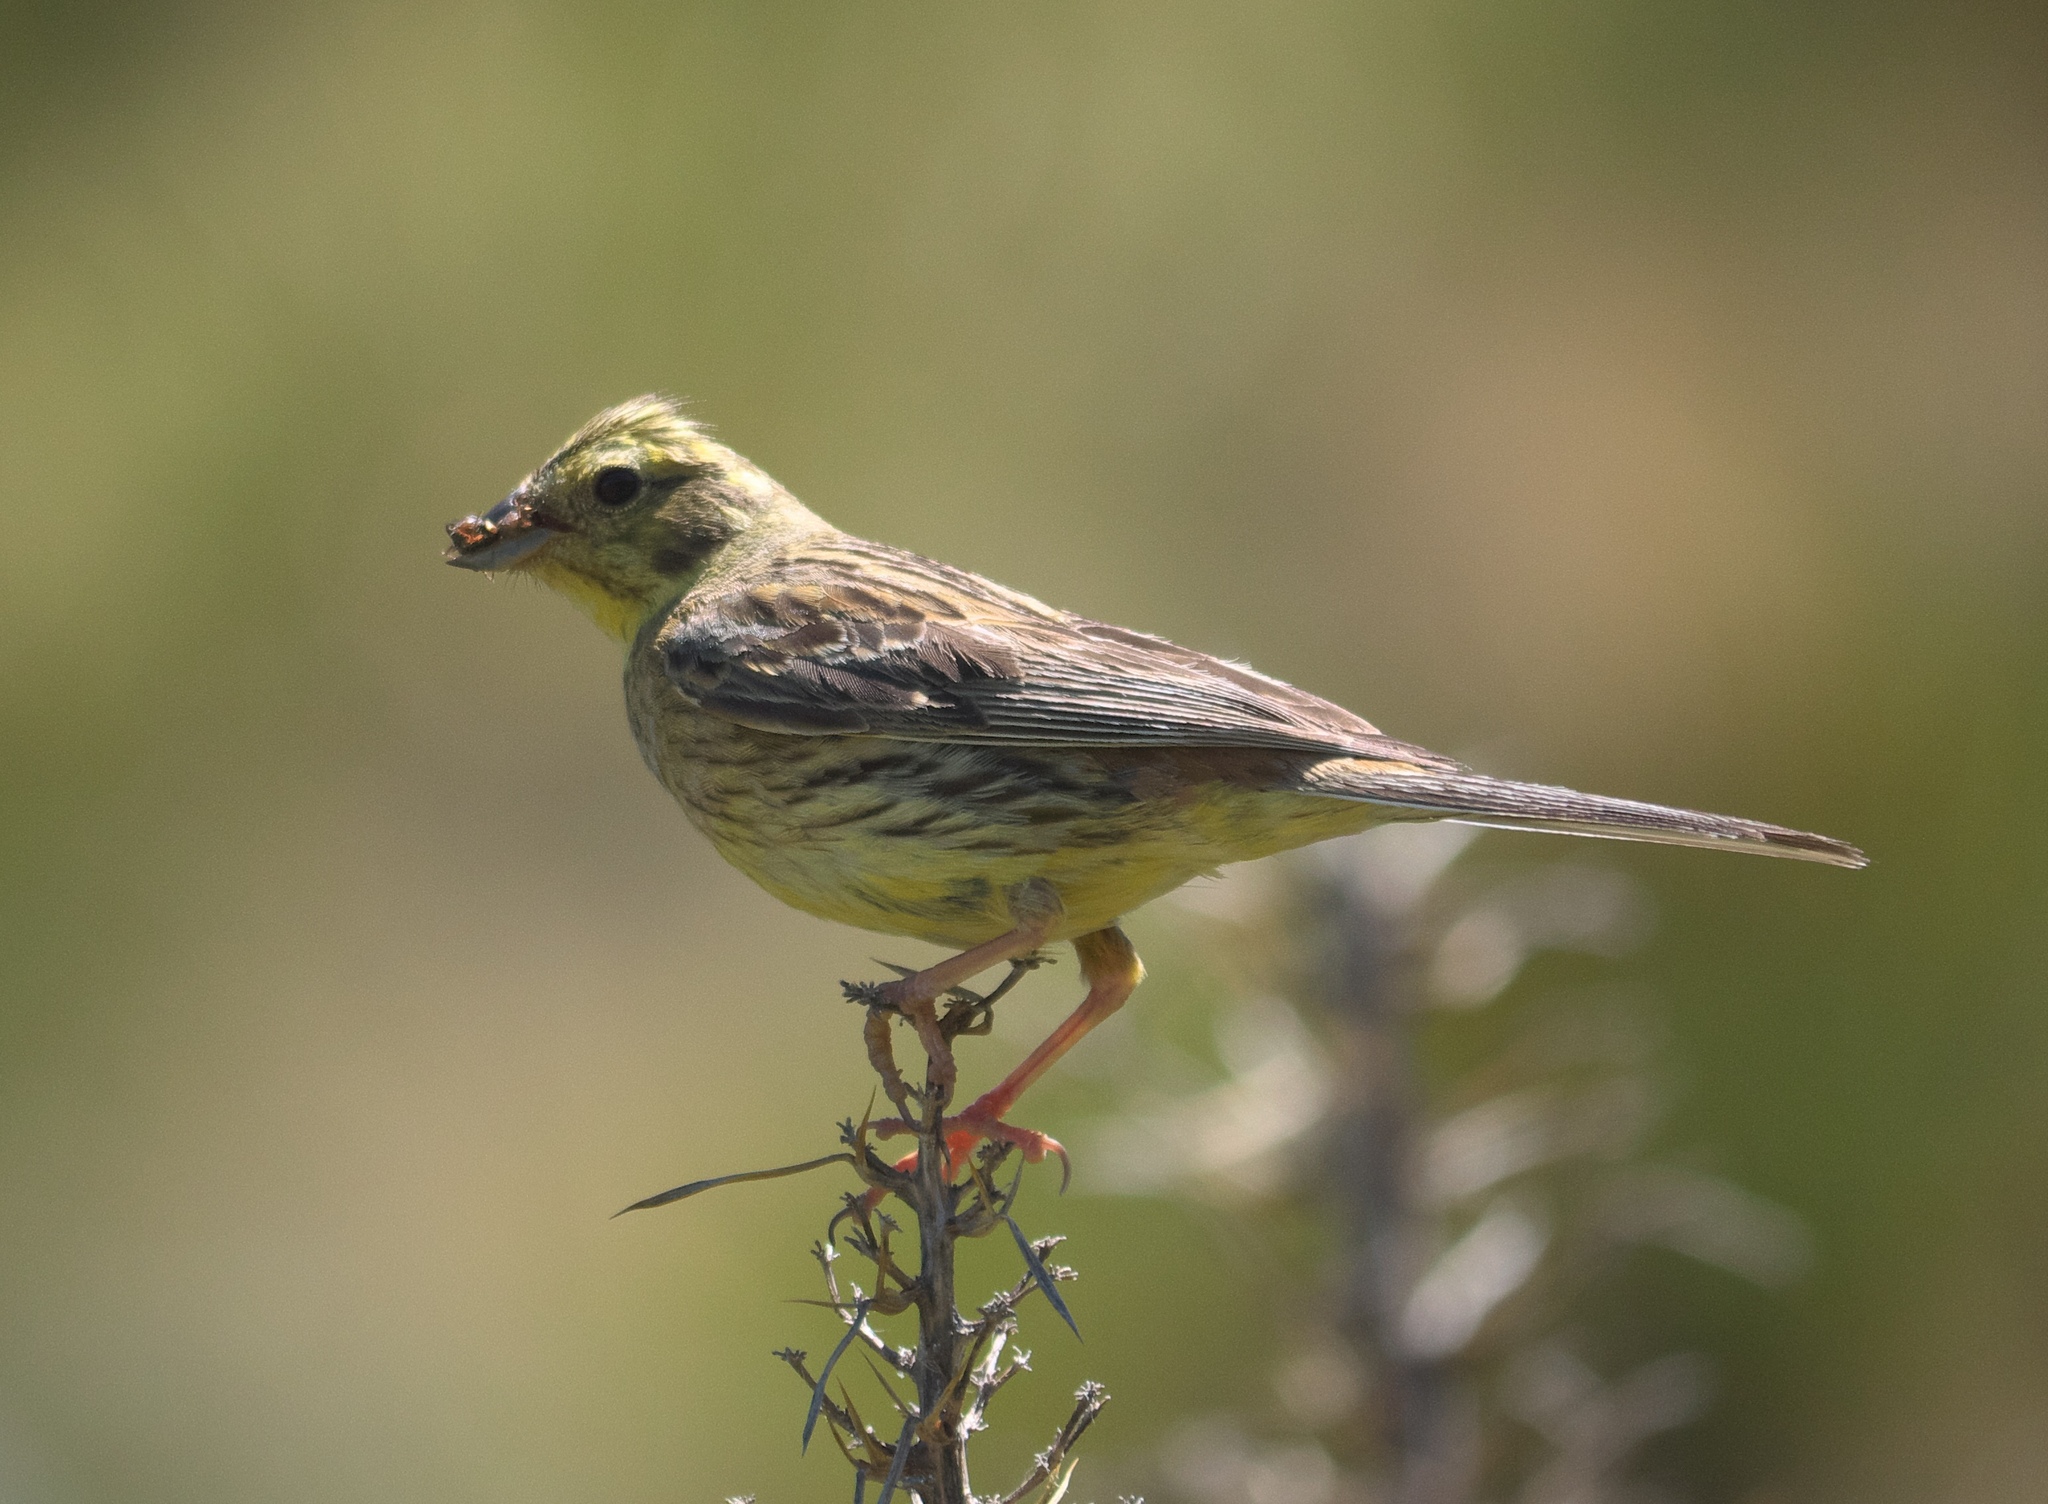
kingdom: Animalia
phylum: Chordata
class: Aves
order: Passeriformes
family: Emberizidae
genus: Emberiza
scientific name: Emberiza citrinella
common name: Yellowhammer
